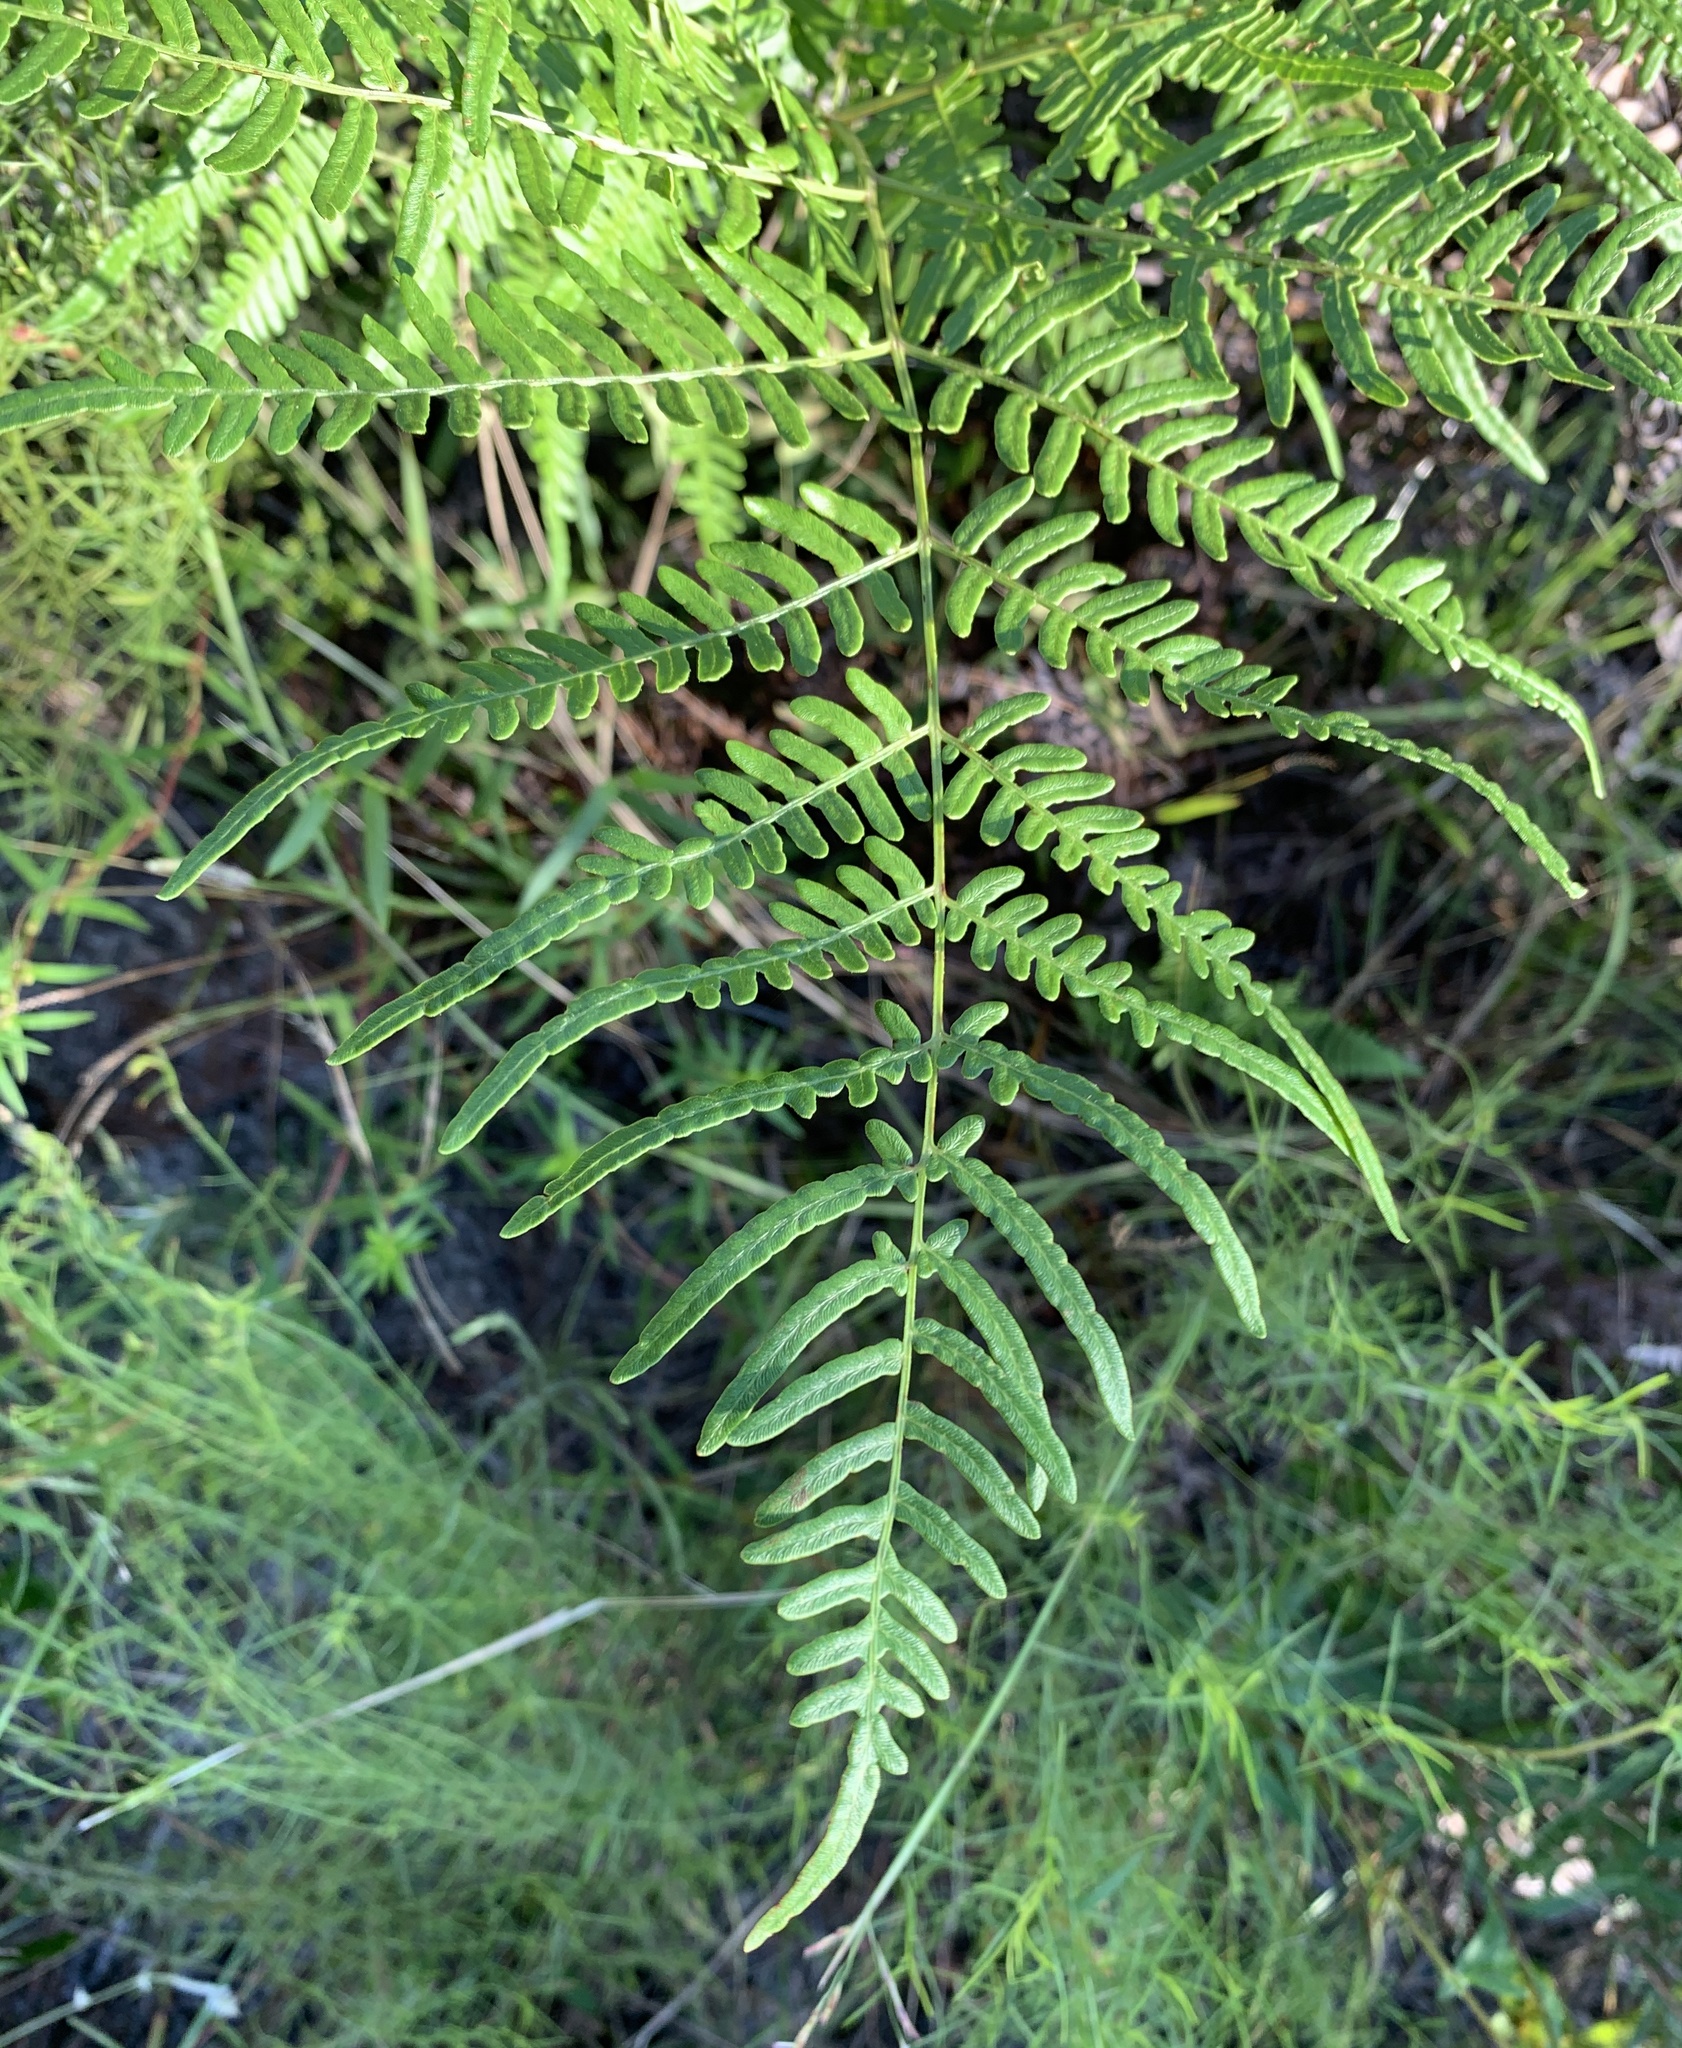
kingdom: Plantae
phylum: Tracheophyta
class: Polypodiopsida
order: Polypodiales
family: Dennstaedtiaceae
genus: Pteridium
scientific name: Pteridium
